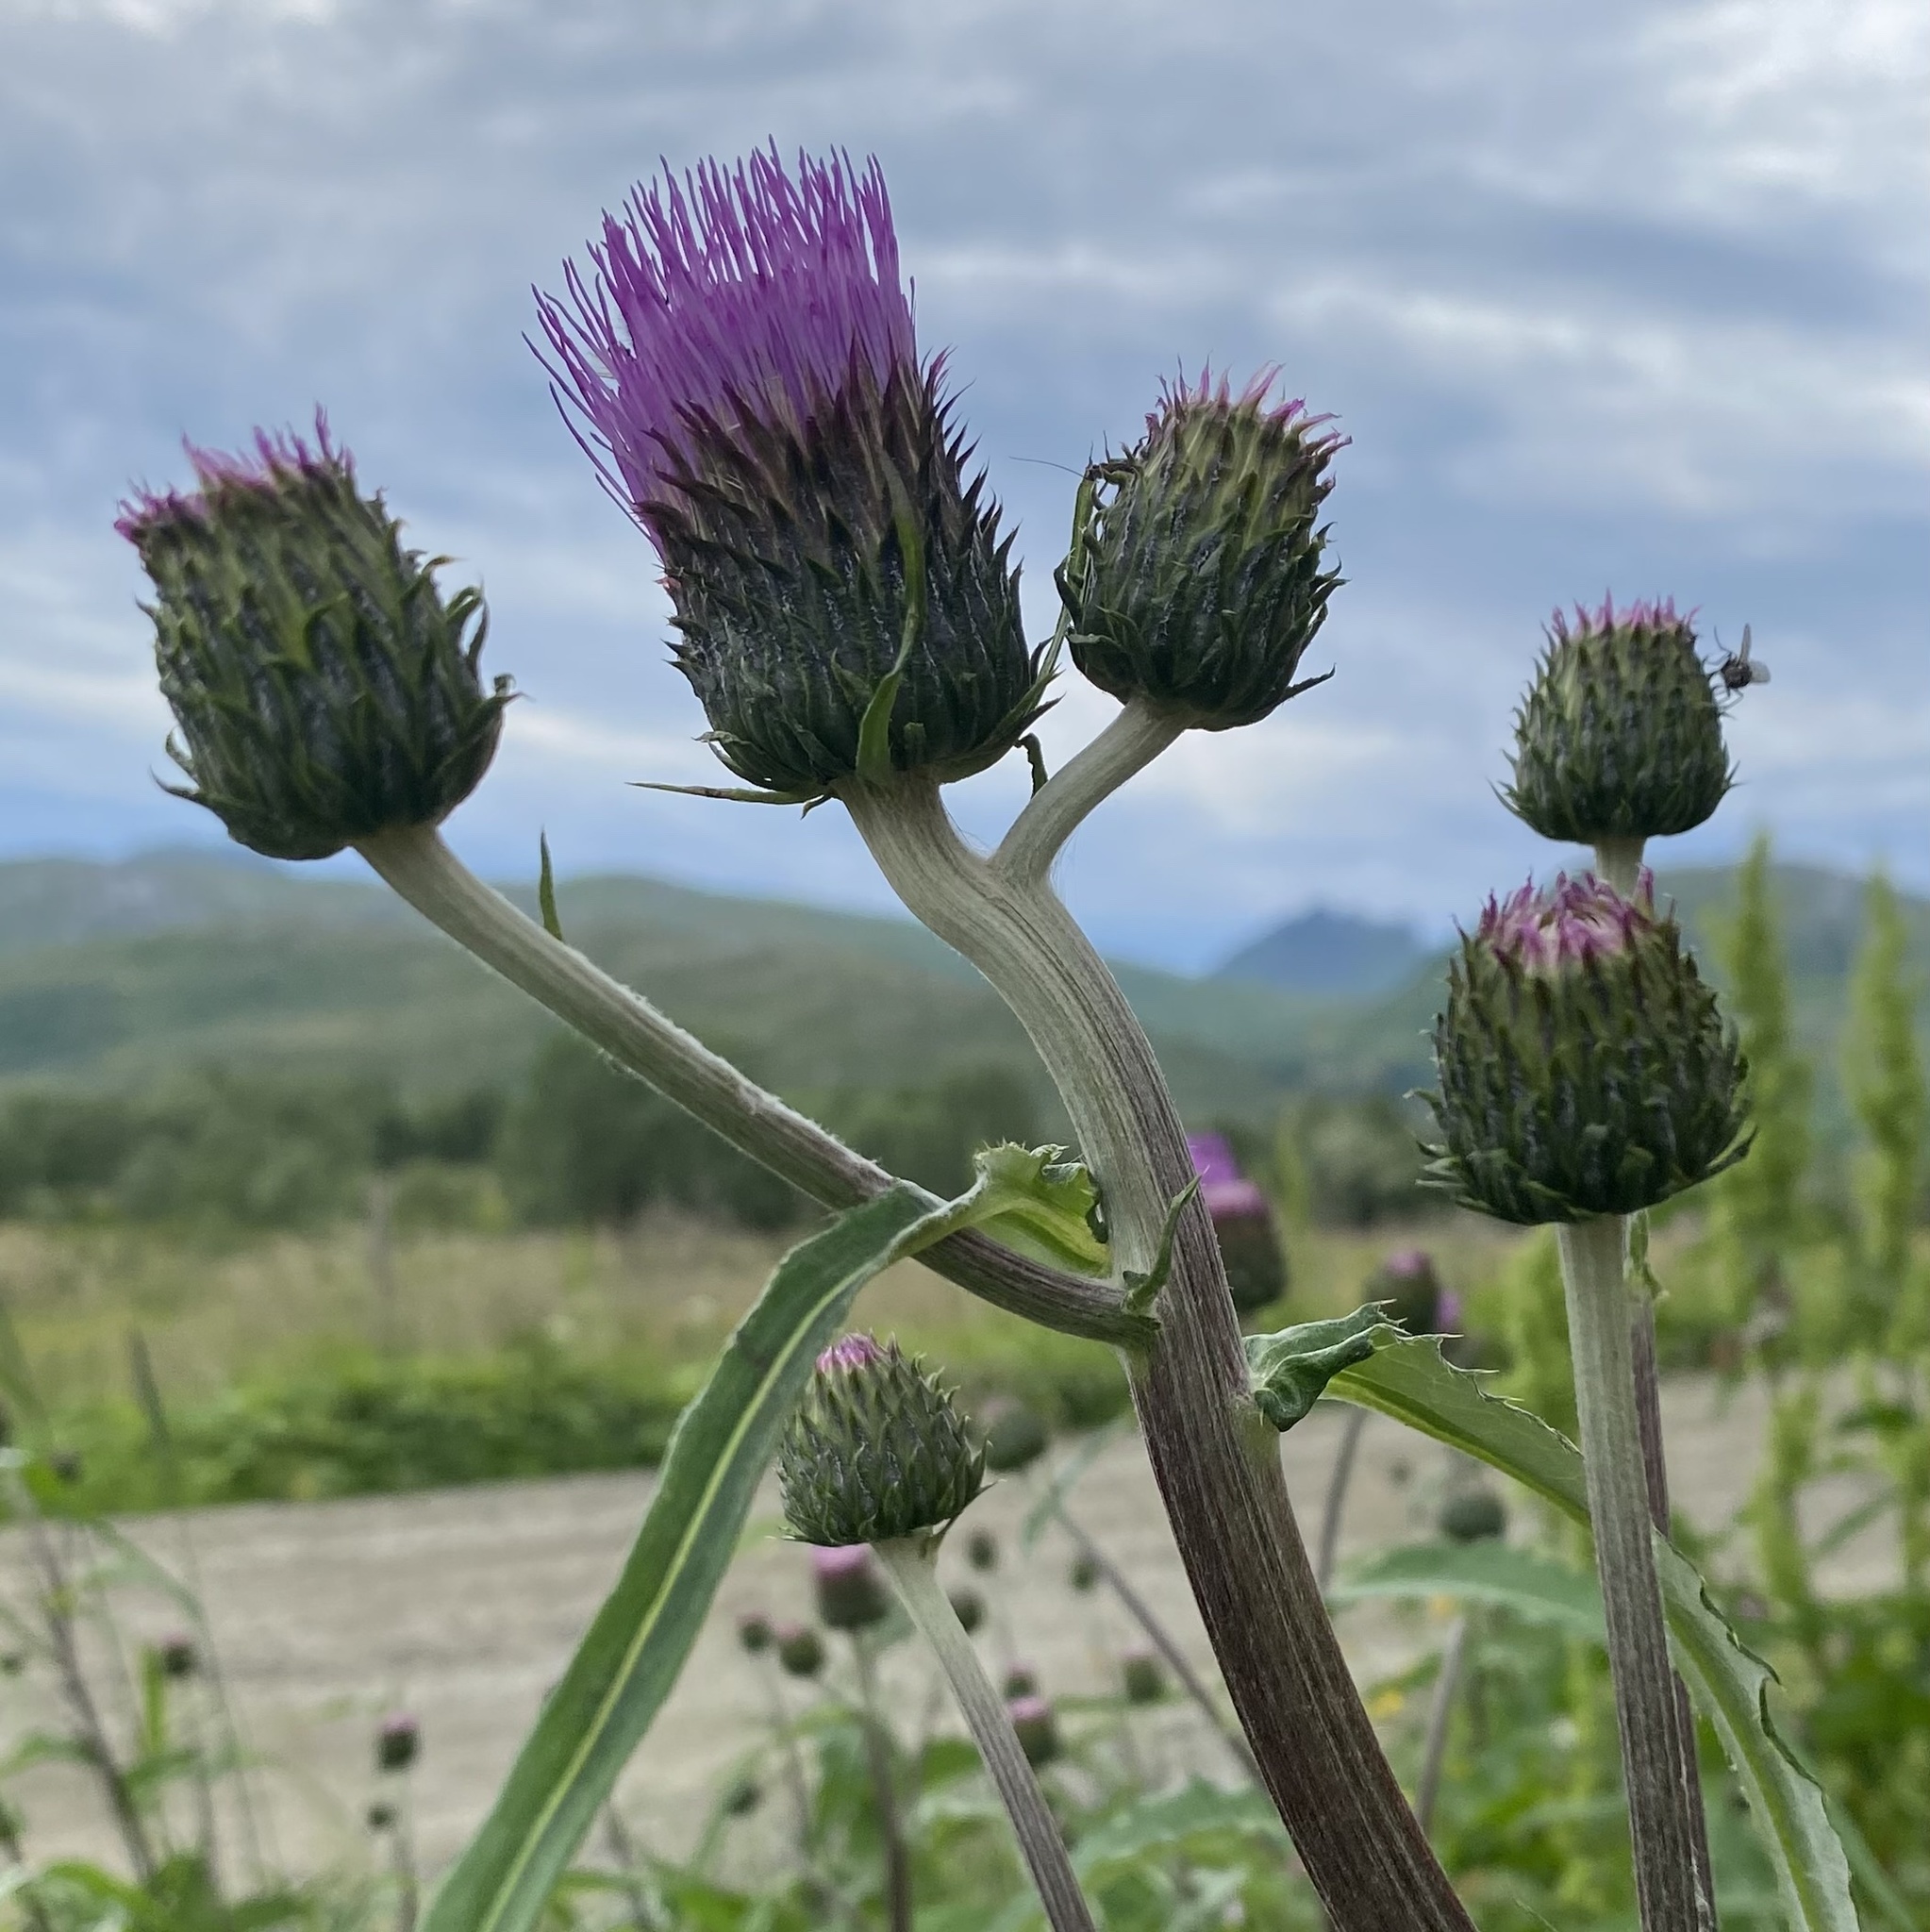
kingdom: Plantae
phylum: Tracheophyta
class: Magnoliopsida
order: Asterales
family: Asteraceae
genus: Cirsium
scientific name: Cirsium heterophyllum
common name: Melancholy thistle
